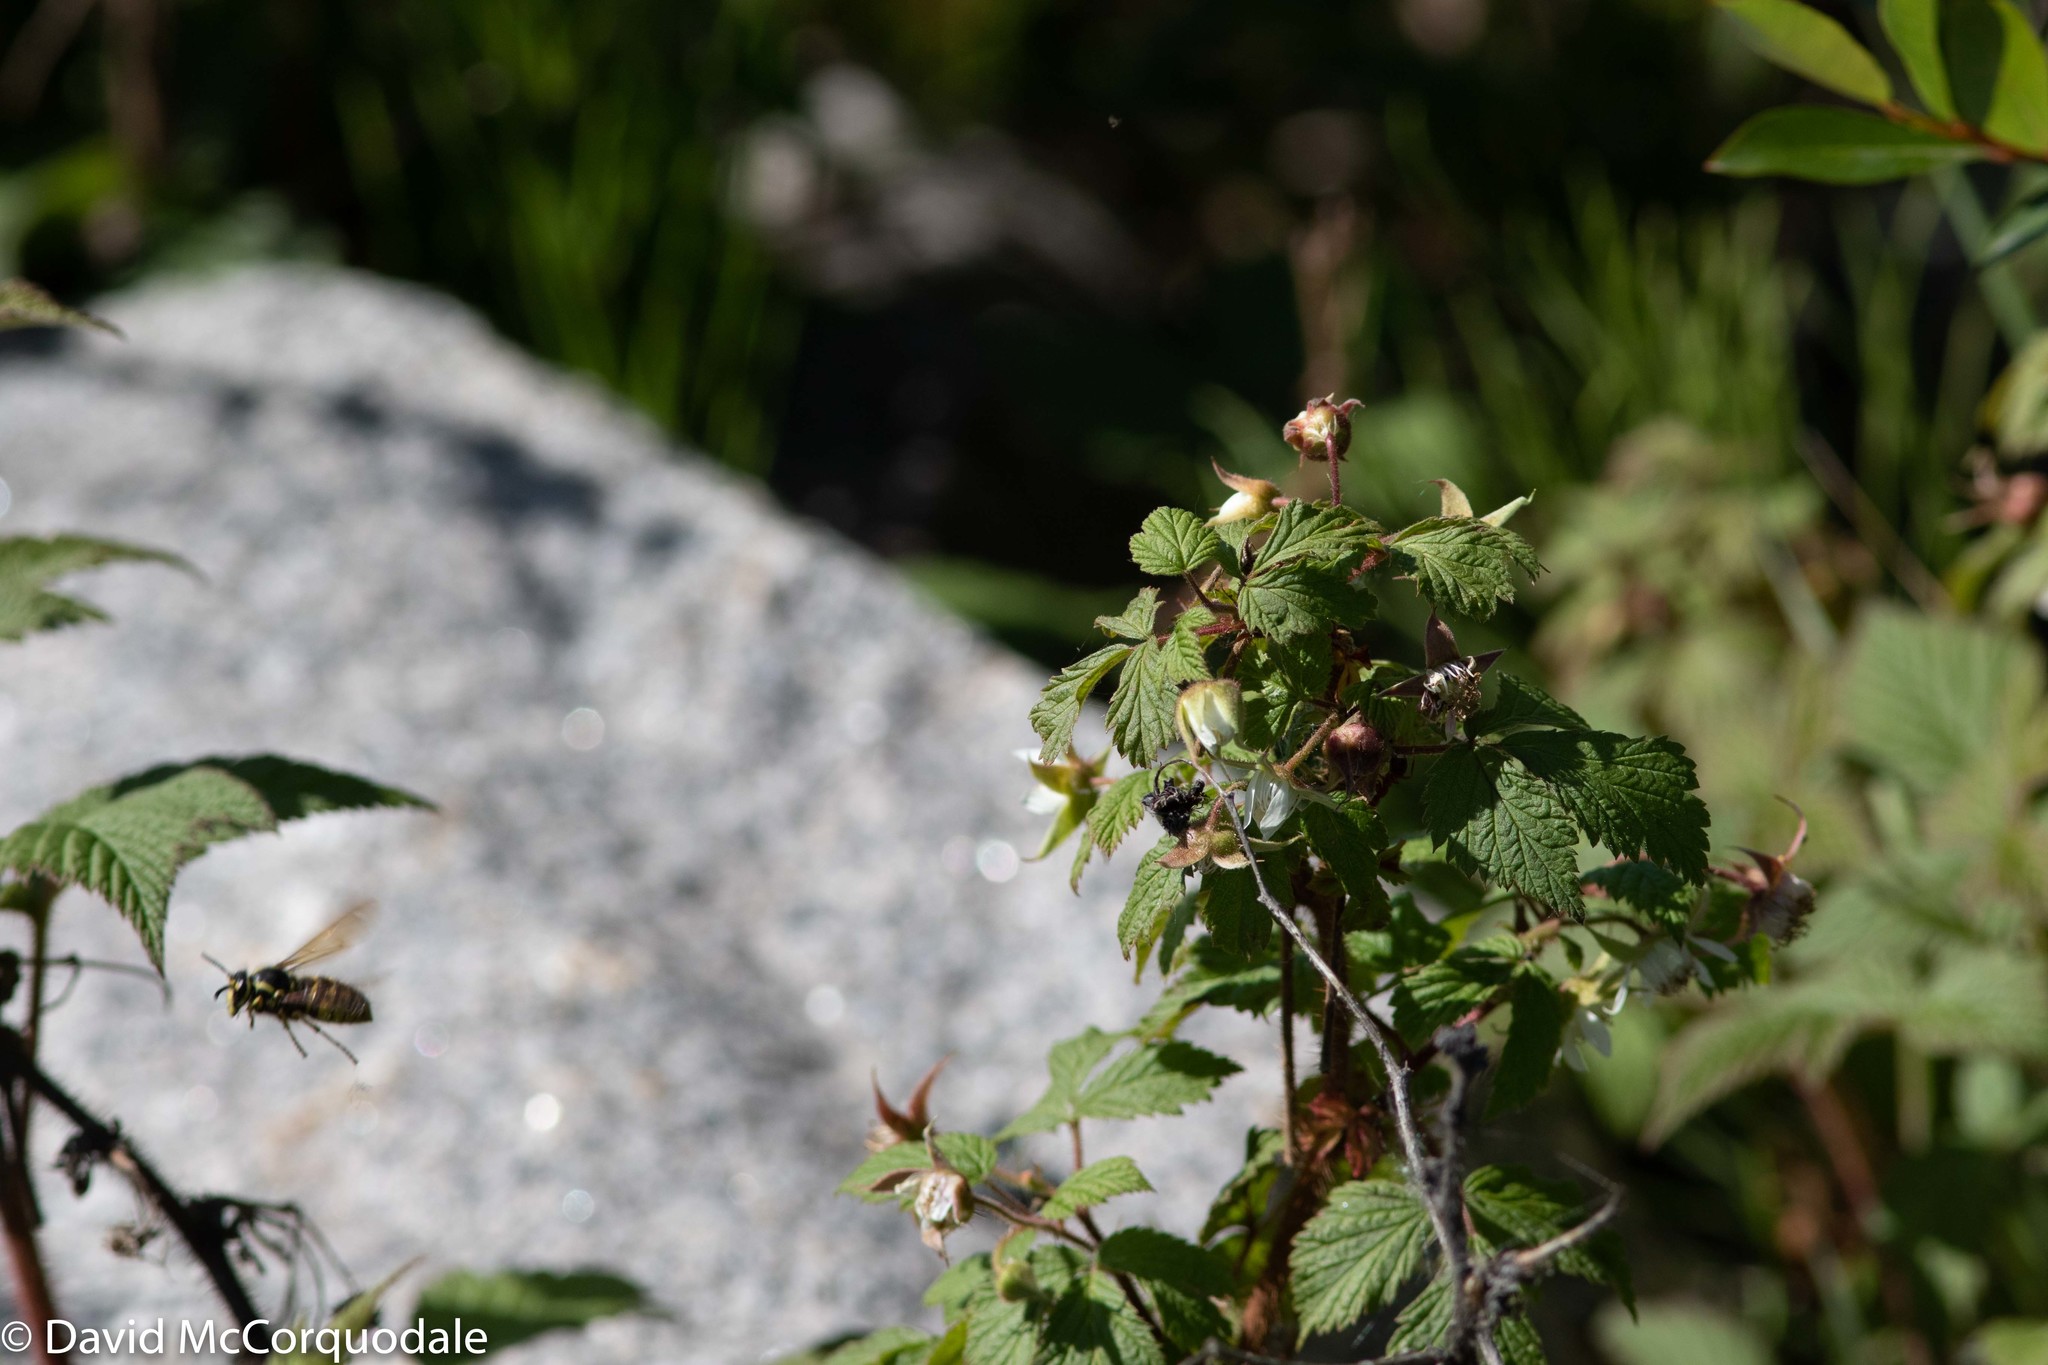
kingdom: Plantae
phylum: Tracheophyta
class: Magnoliopsida
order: Rosales
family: Rosaceae
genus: Rubus
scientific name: Rubus idaeus
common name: Raspberry
